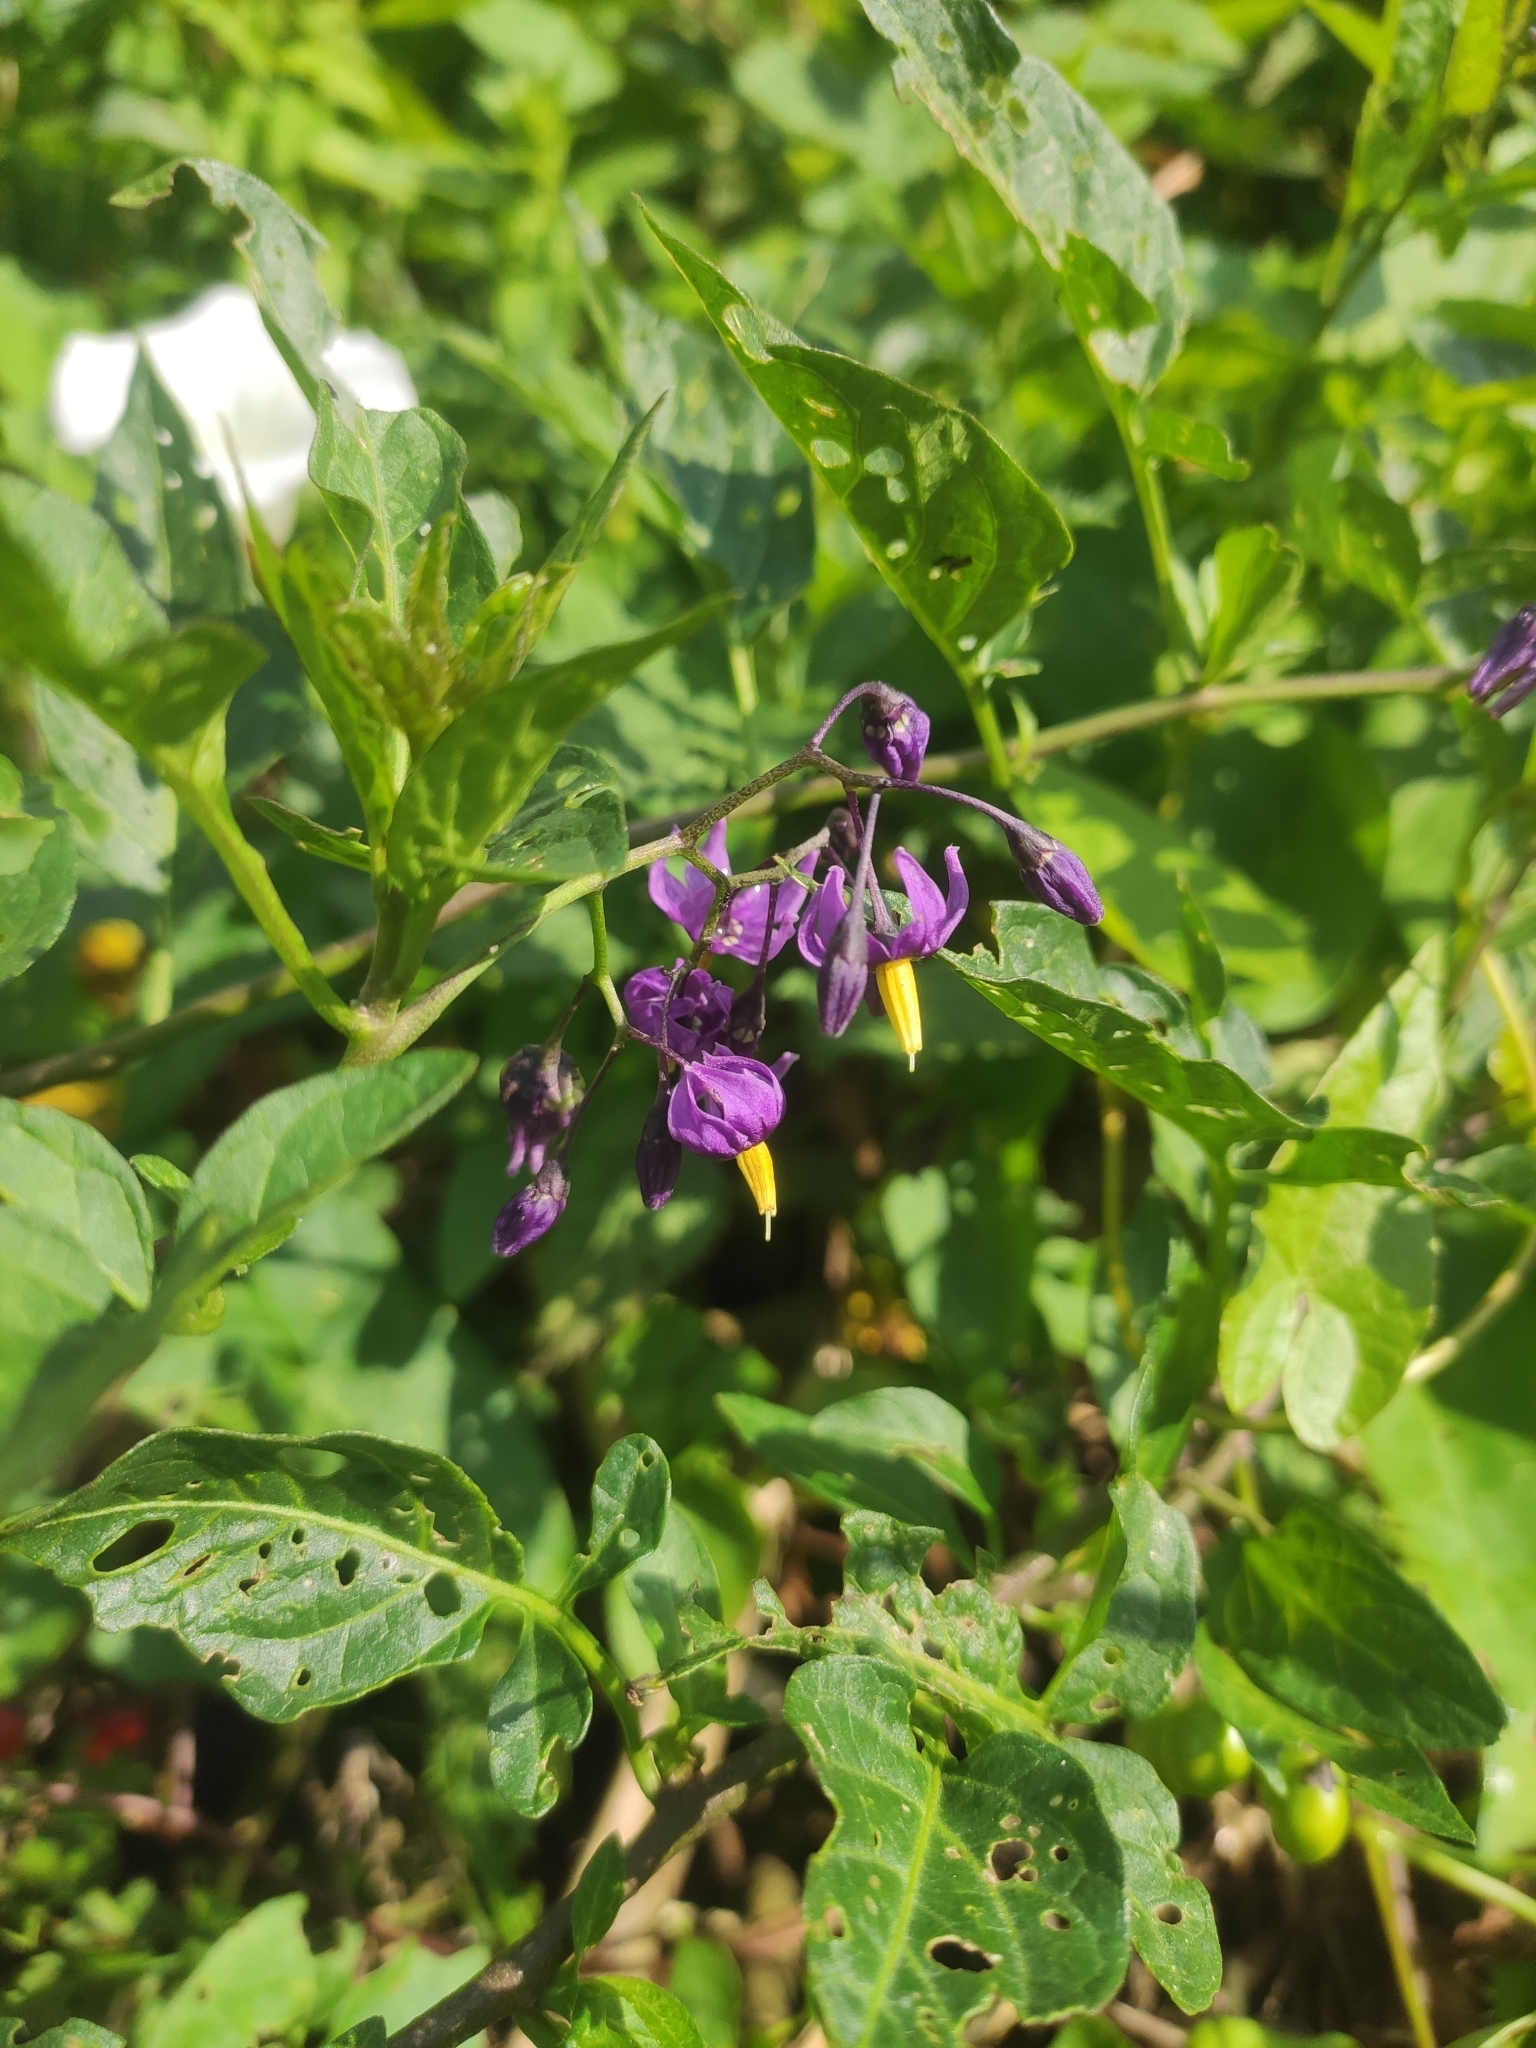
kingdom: Plantae
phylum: Tracheophyta
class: Magnoliopsida
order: Solanales
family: Solanaceae
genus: Solanum
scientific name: Solanum dulcamara
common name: Climbing nightshade
